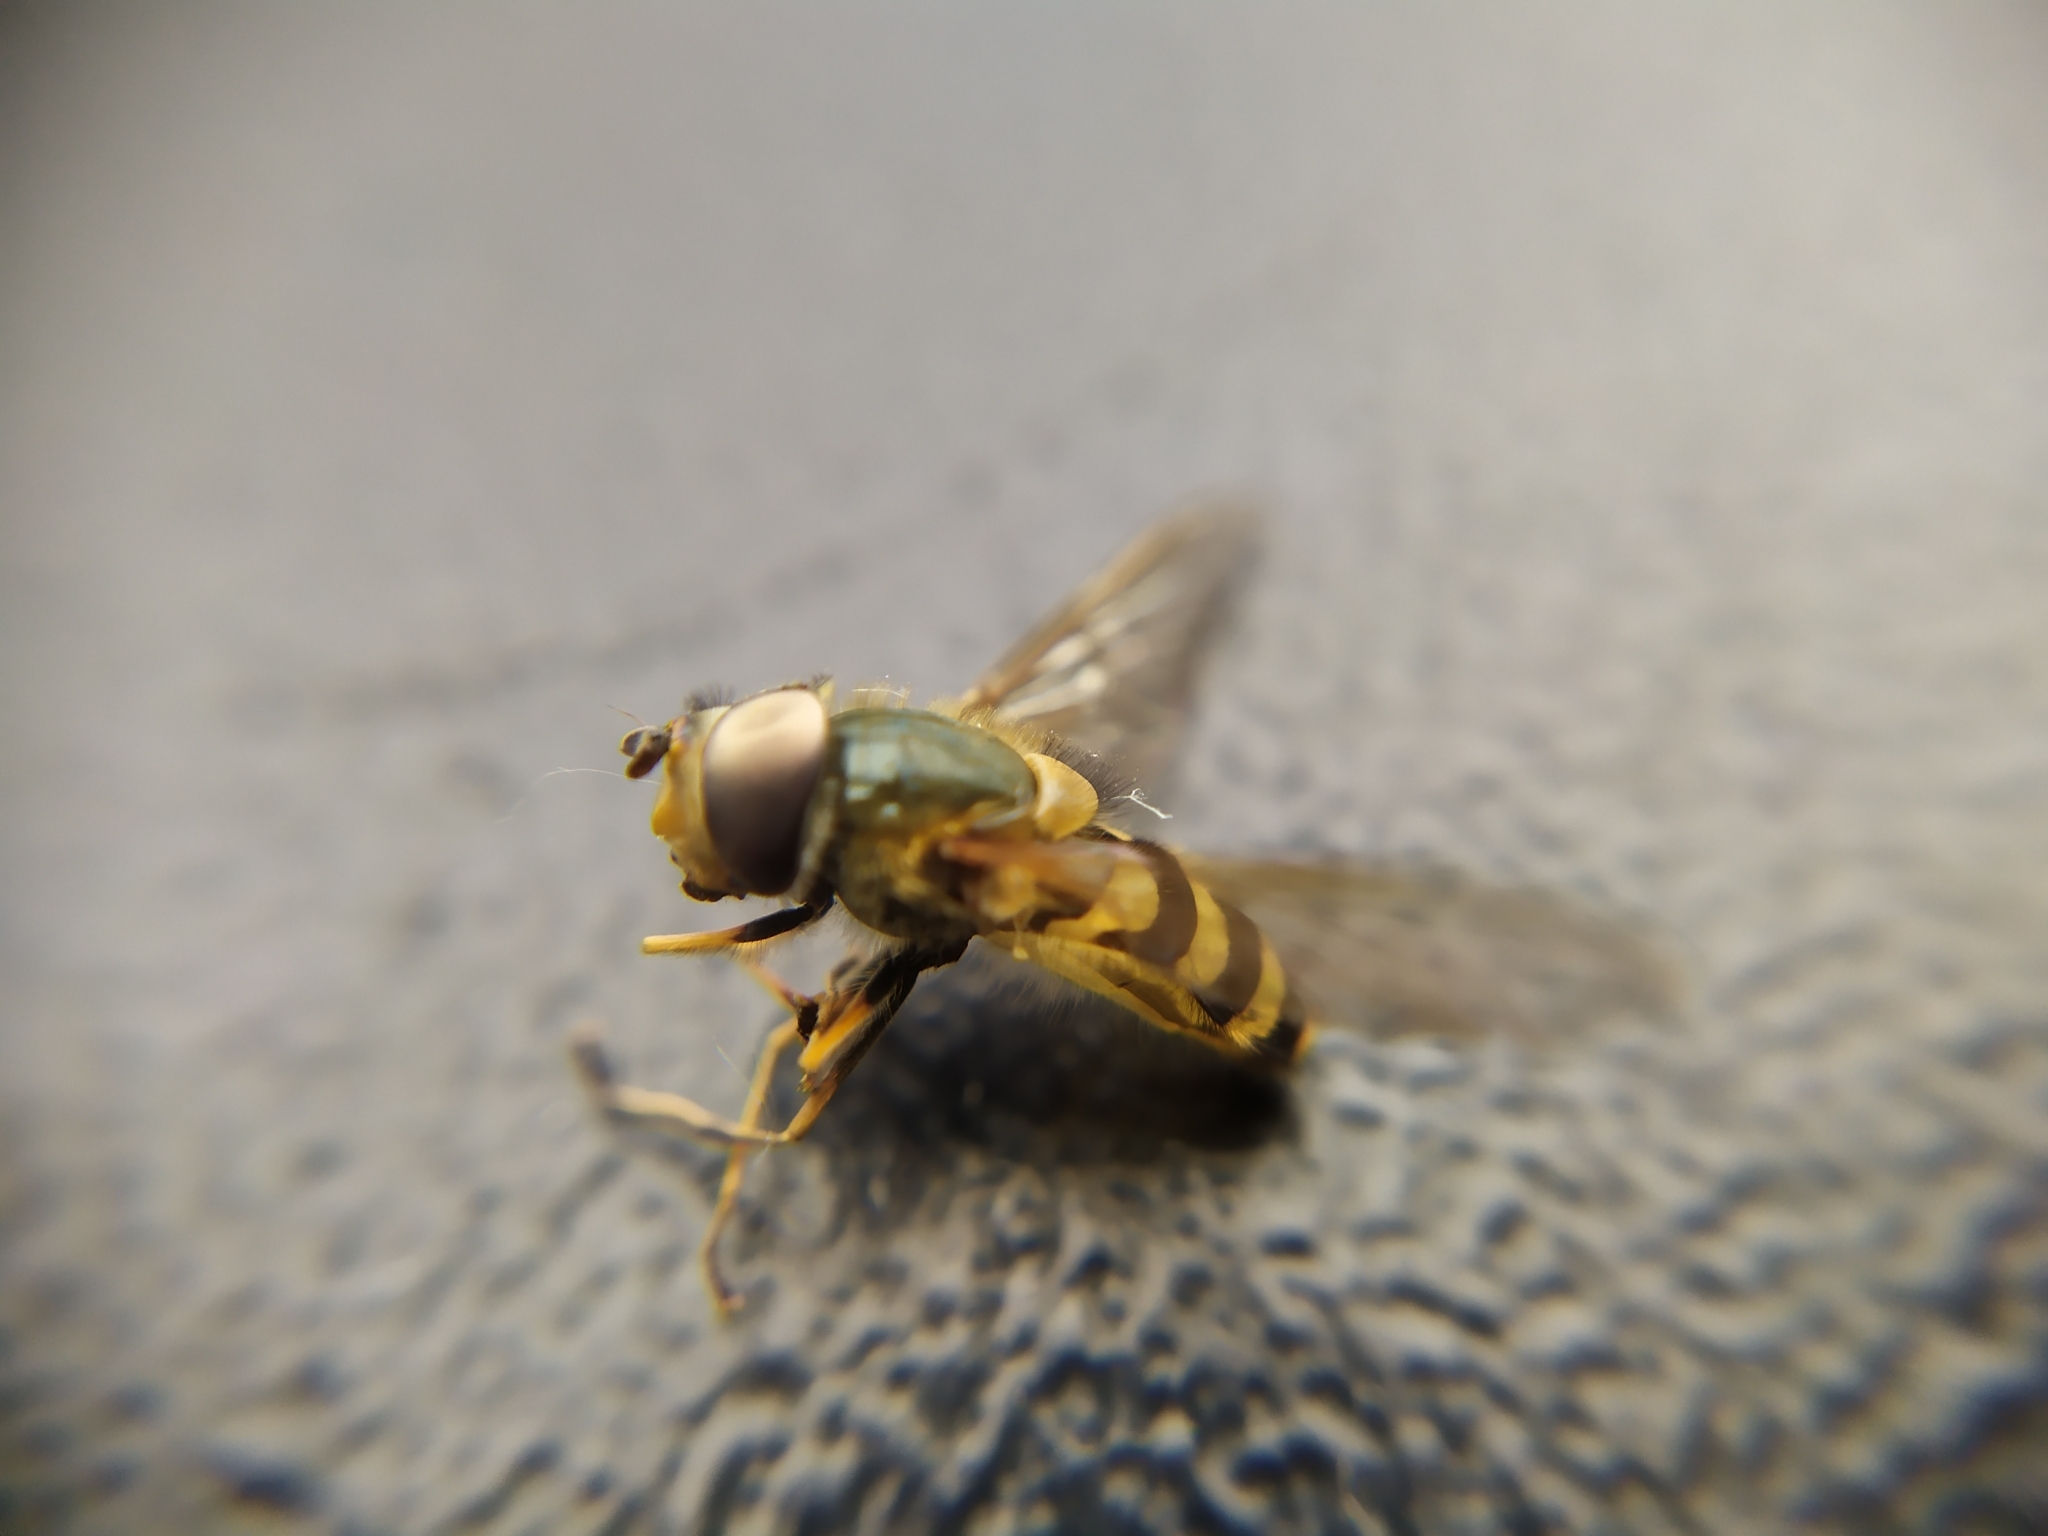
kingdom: Animalia
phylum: Arthropoda
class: Insecta
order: Diptera
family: Syrphidae
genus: Syrphus
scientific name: Syrphus torvus
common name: Hairy-eyed flower fly
